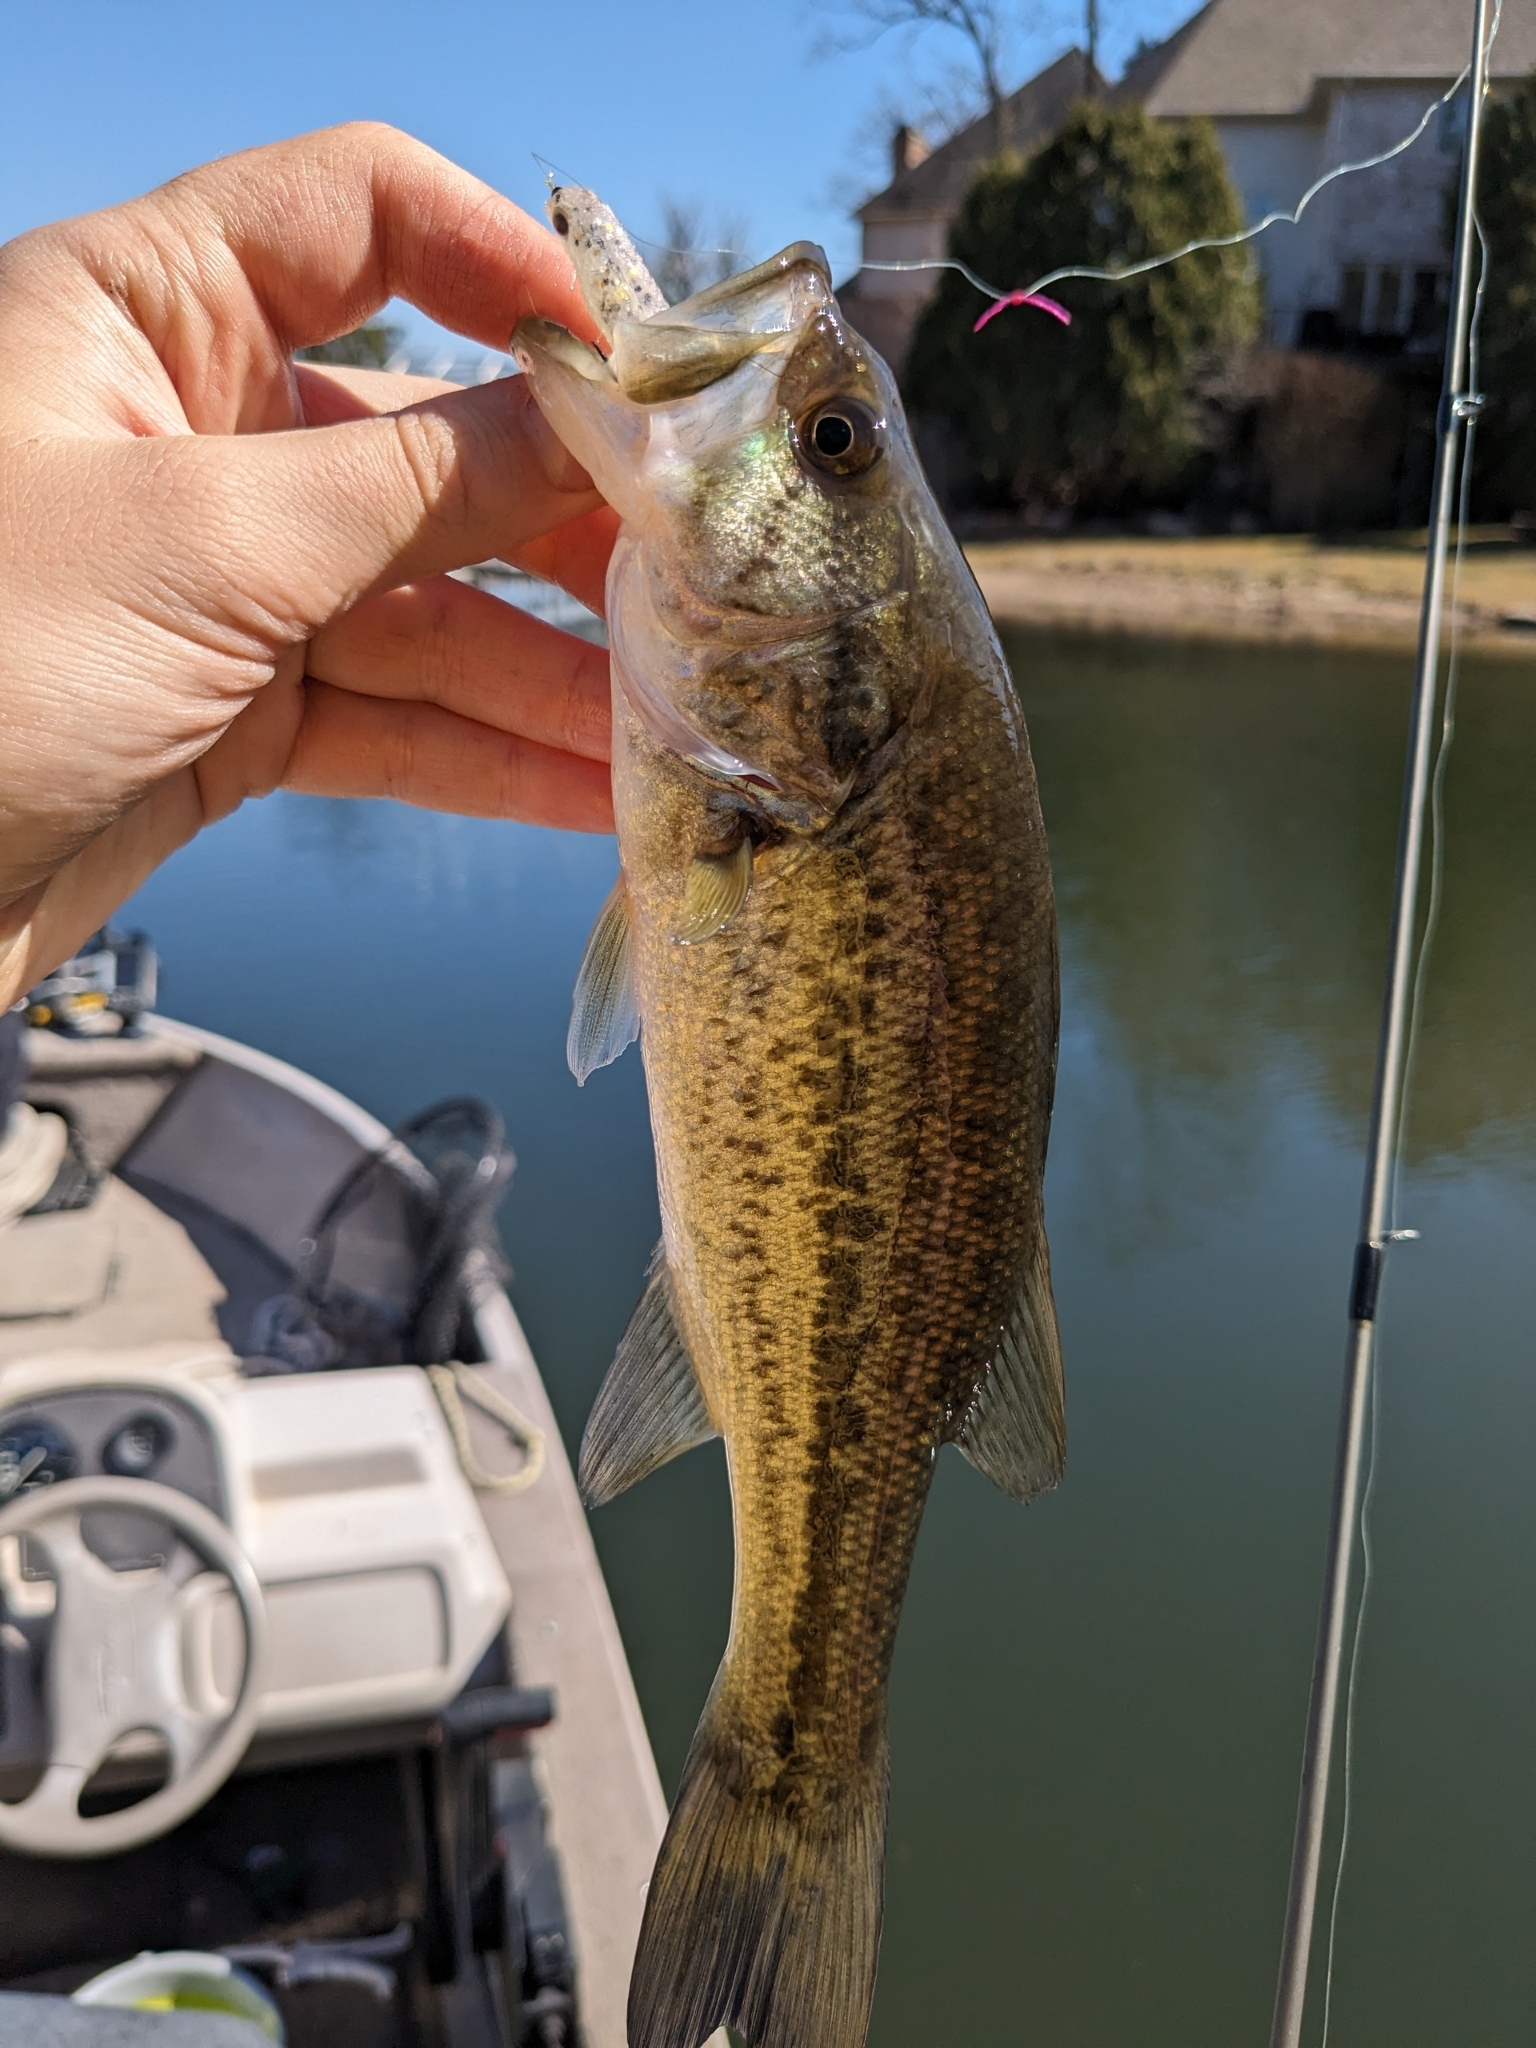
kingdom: Animalia
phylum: Chordata
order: Perciformes
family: Centrarchidae
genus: Micropterus
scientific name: Micropterus
